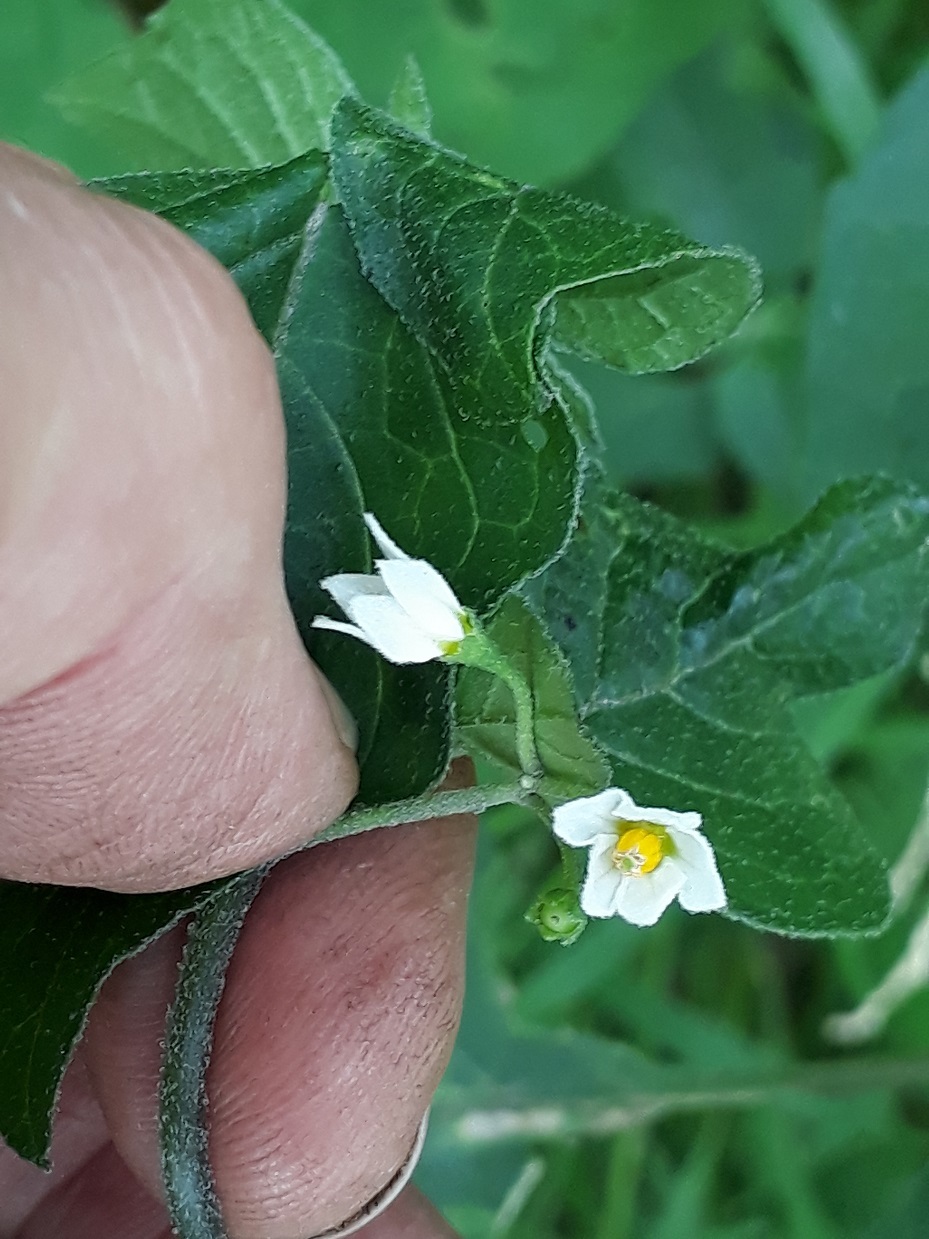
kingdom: Plantae
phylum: Tracheophyta
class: Magnoliopsida
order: Solanales
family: Solanaceae
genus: Solanum
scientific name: Solanum nigrum
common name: Black nightshade
